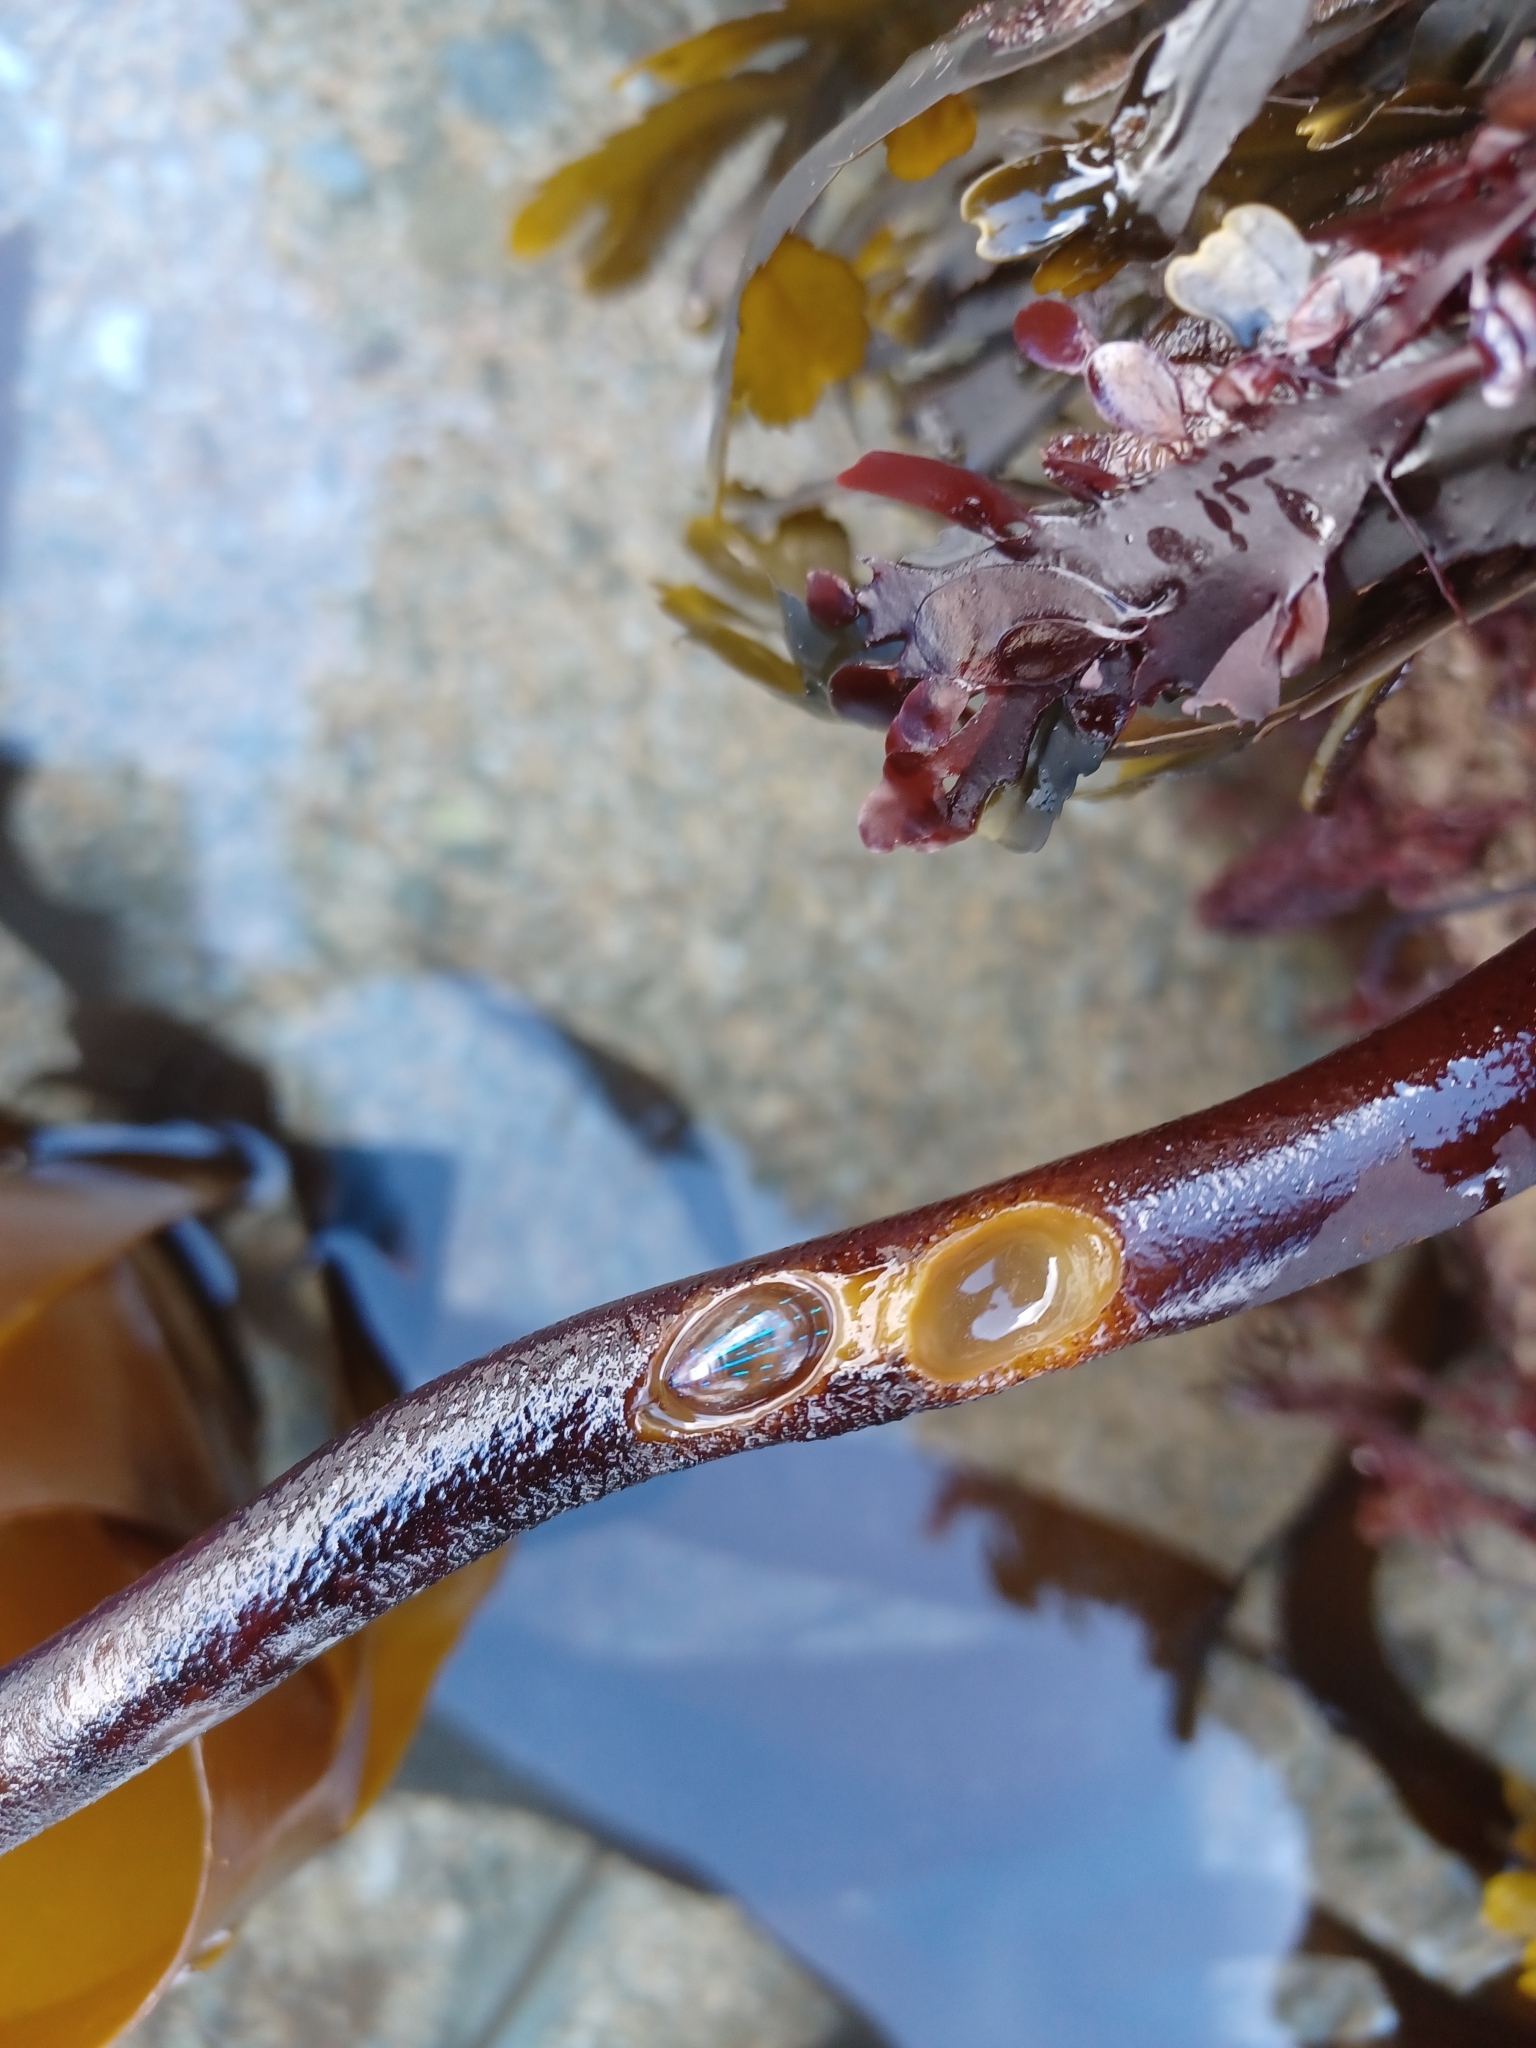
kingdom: Animalia
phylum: Mollusca
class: Gastropoda
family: Patellidae
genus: Patella
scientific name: Patella pellucida
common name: Blue-rayed limpet
